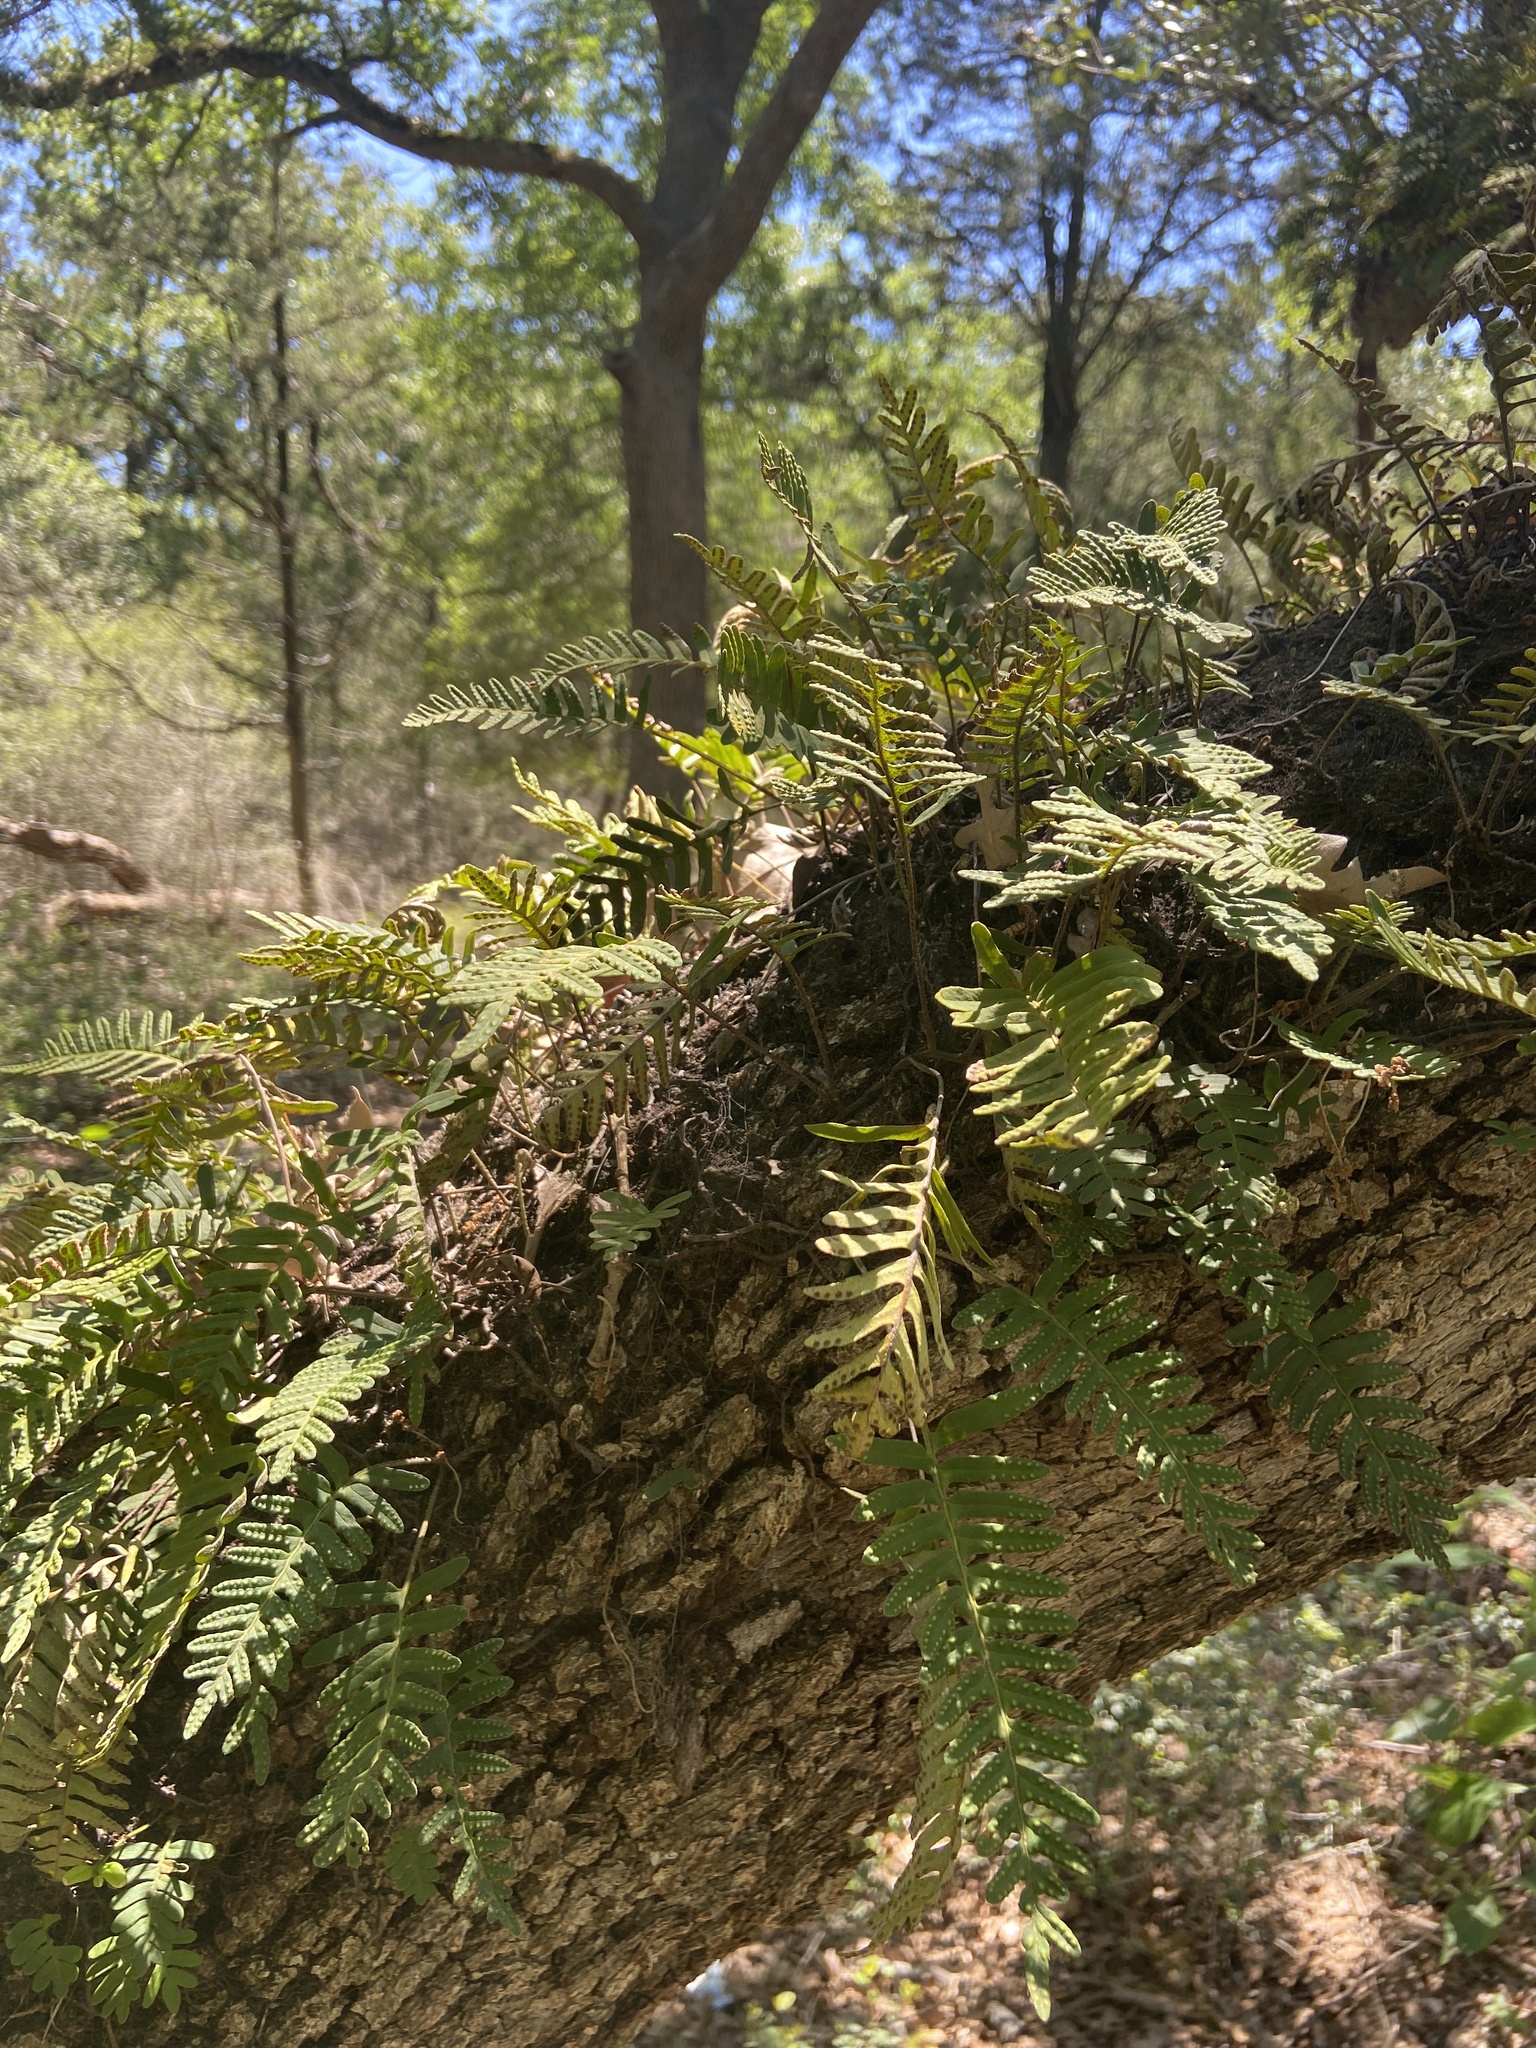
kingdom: Plantae
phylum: Tracheophyta
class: Polypodiopsida
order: Polypodiales
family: Polypodiaceae
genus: Pleopeltis
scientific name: Pleopeltis michauxiana
